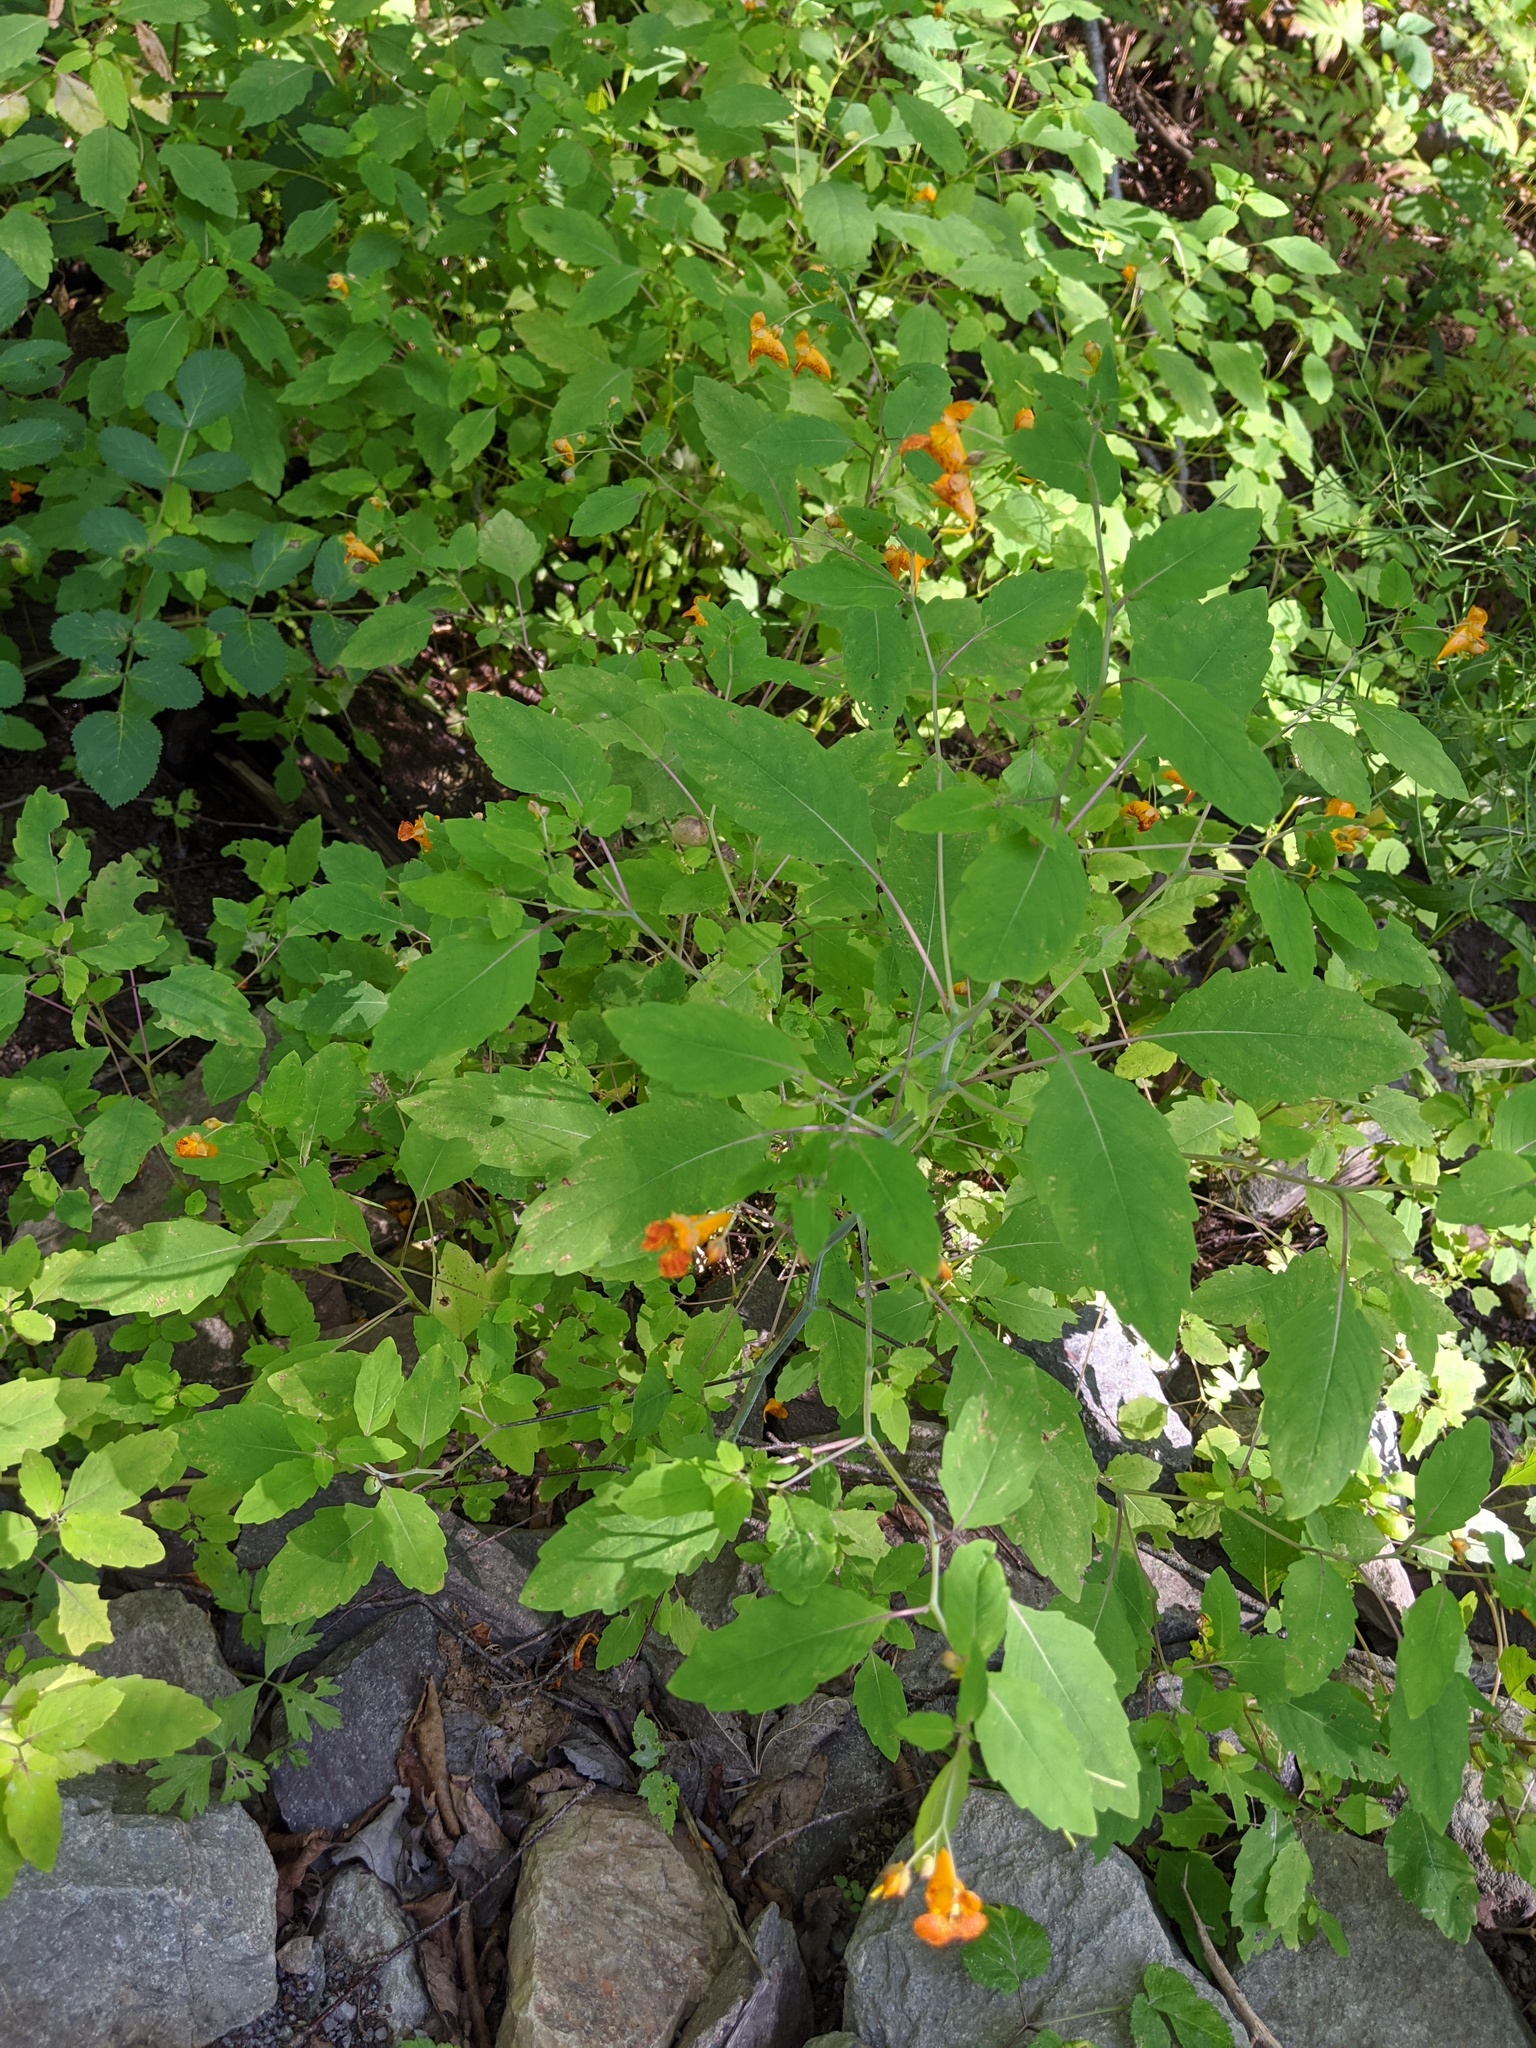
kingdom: Plantae
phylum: Tracheophyta
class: Magnoliopsida
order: Ericales
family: Balsaminaceae
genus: Impatiens
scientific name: Impatiens capensis
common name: Orange balsam
